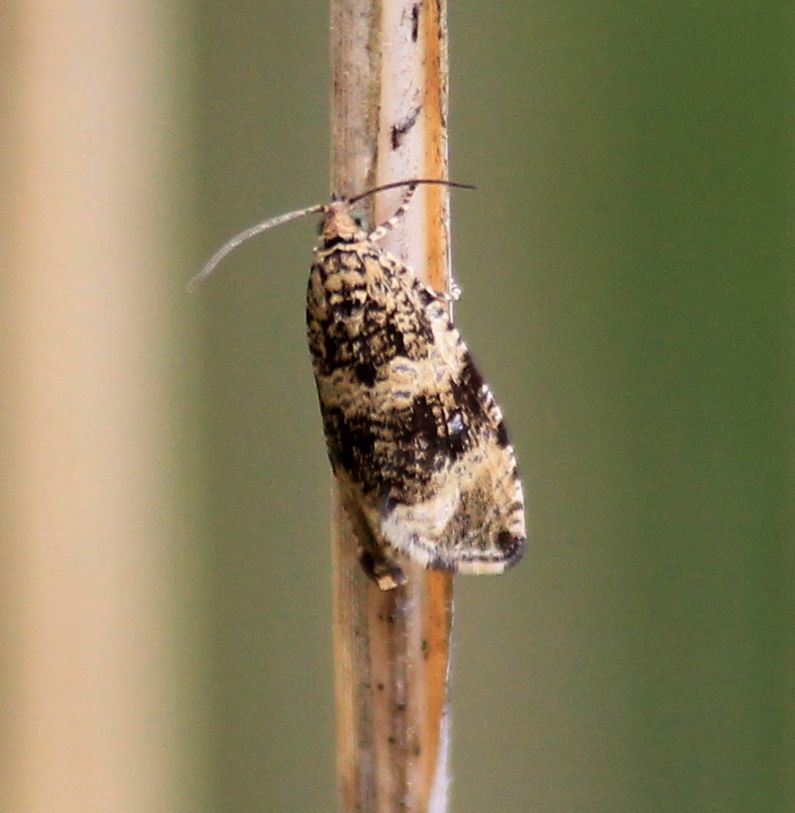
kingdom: Animalia
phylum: Arthropoda
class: Insecta
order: Lepidoptera
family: Tortricidae
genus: Syricoris
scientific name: Syricoris lacunana
